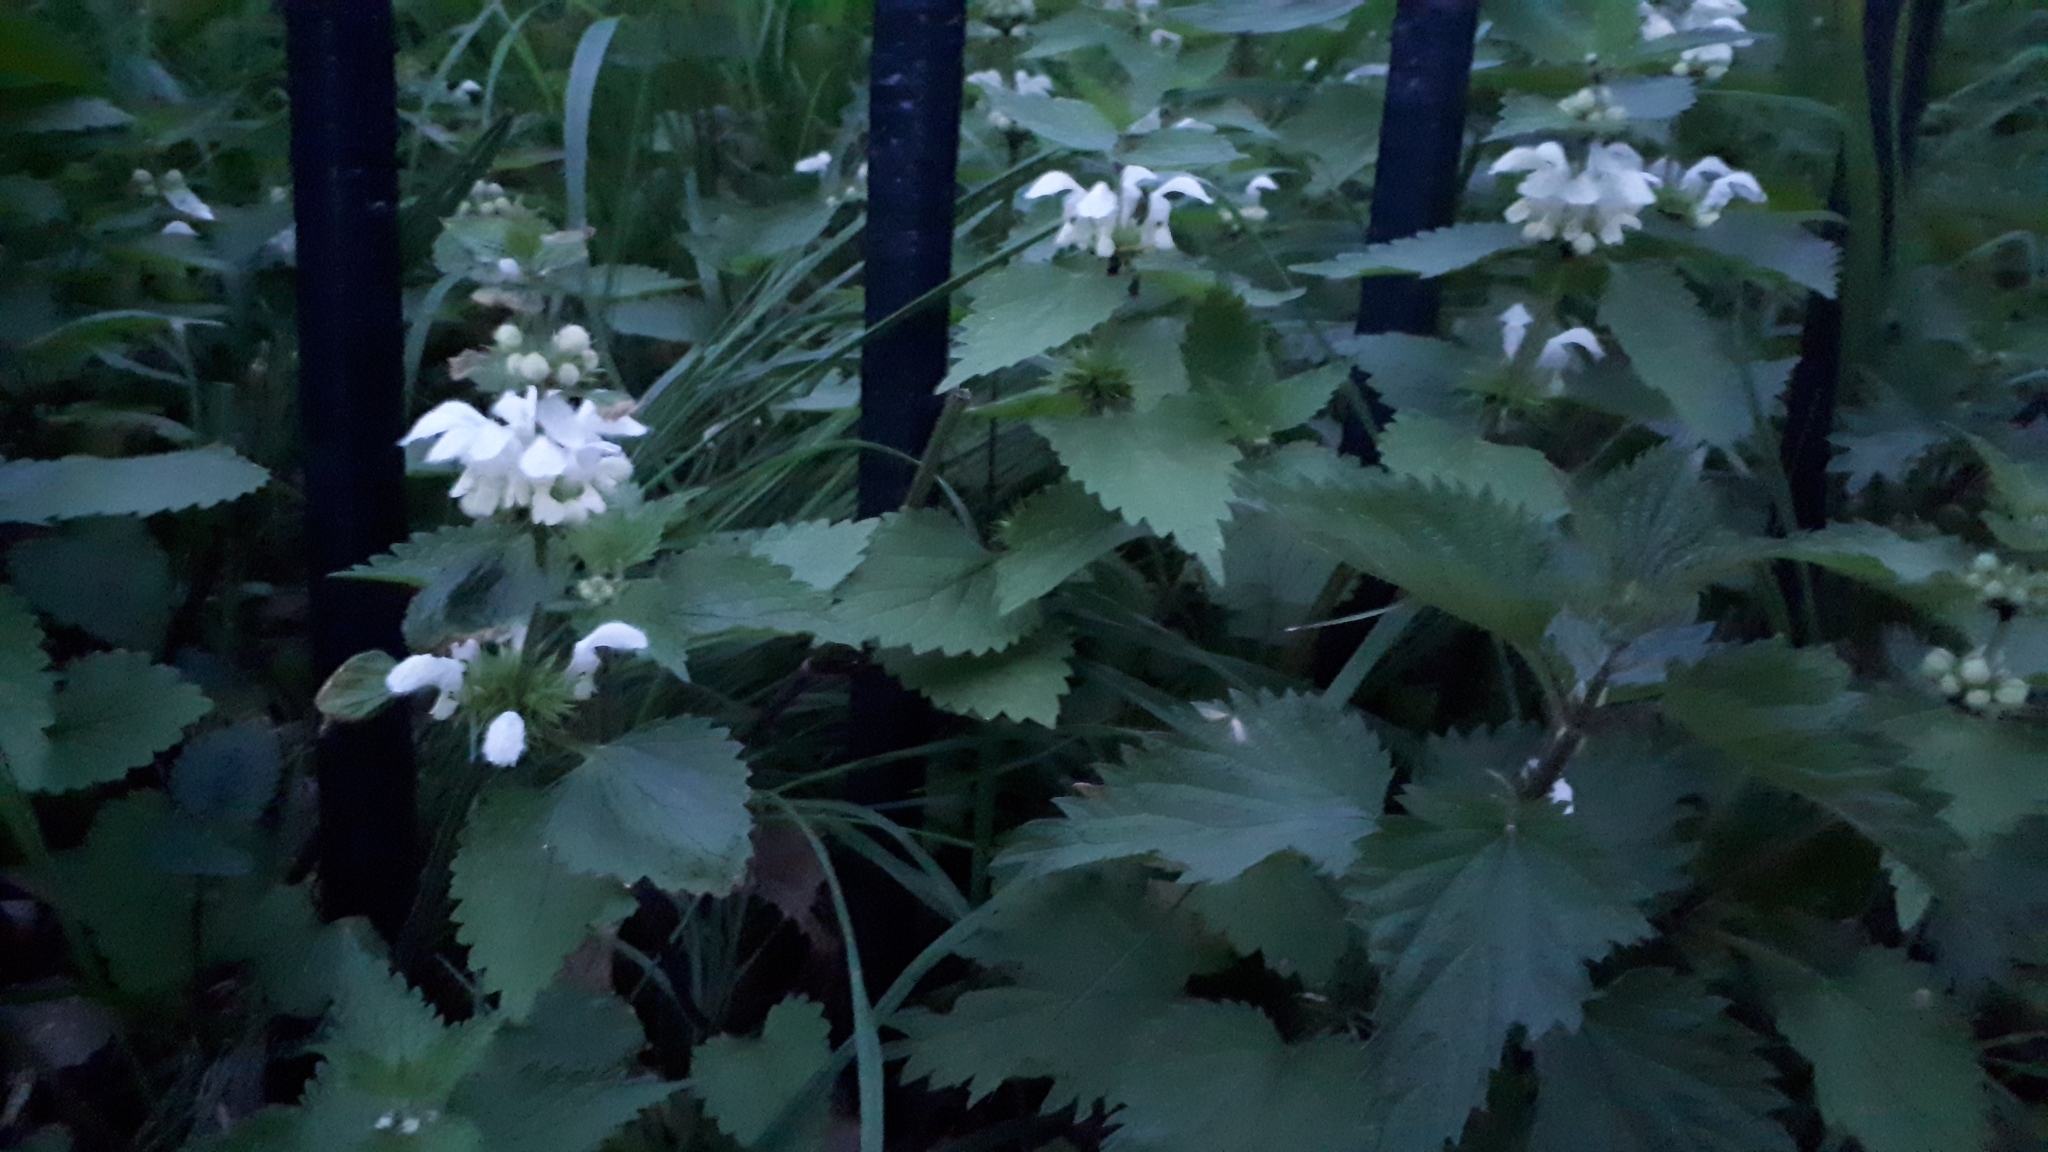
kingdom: Plantae
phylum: Tracheophyta
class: Magnoliopsida
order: Lamiales
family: Lamiaceae
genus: Lamium
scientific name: Lamium album
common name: White dead-nettle
